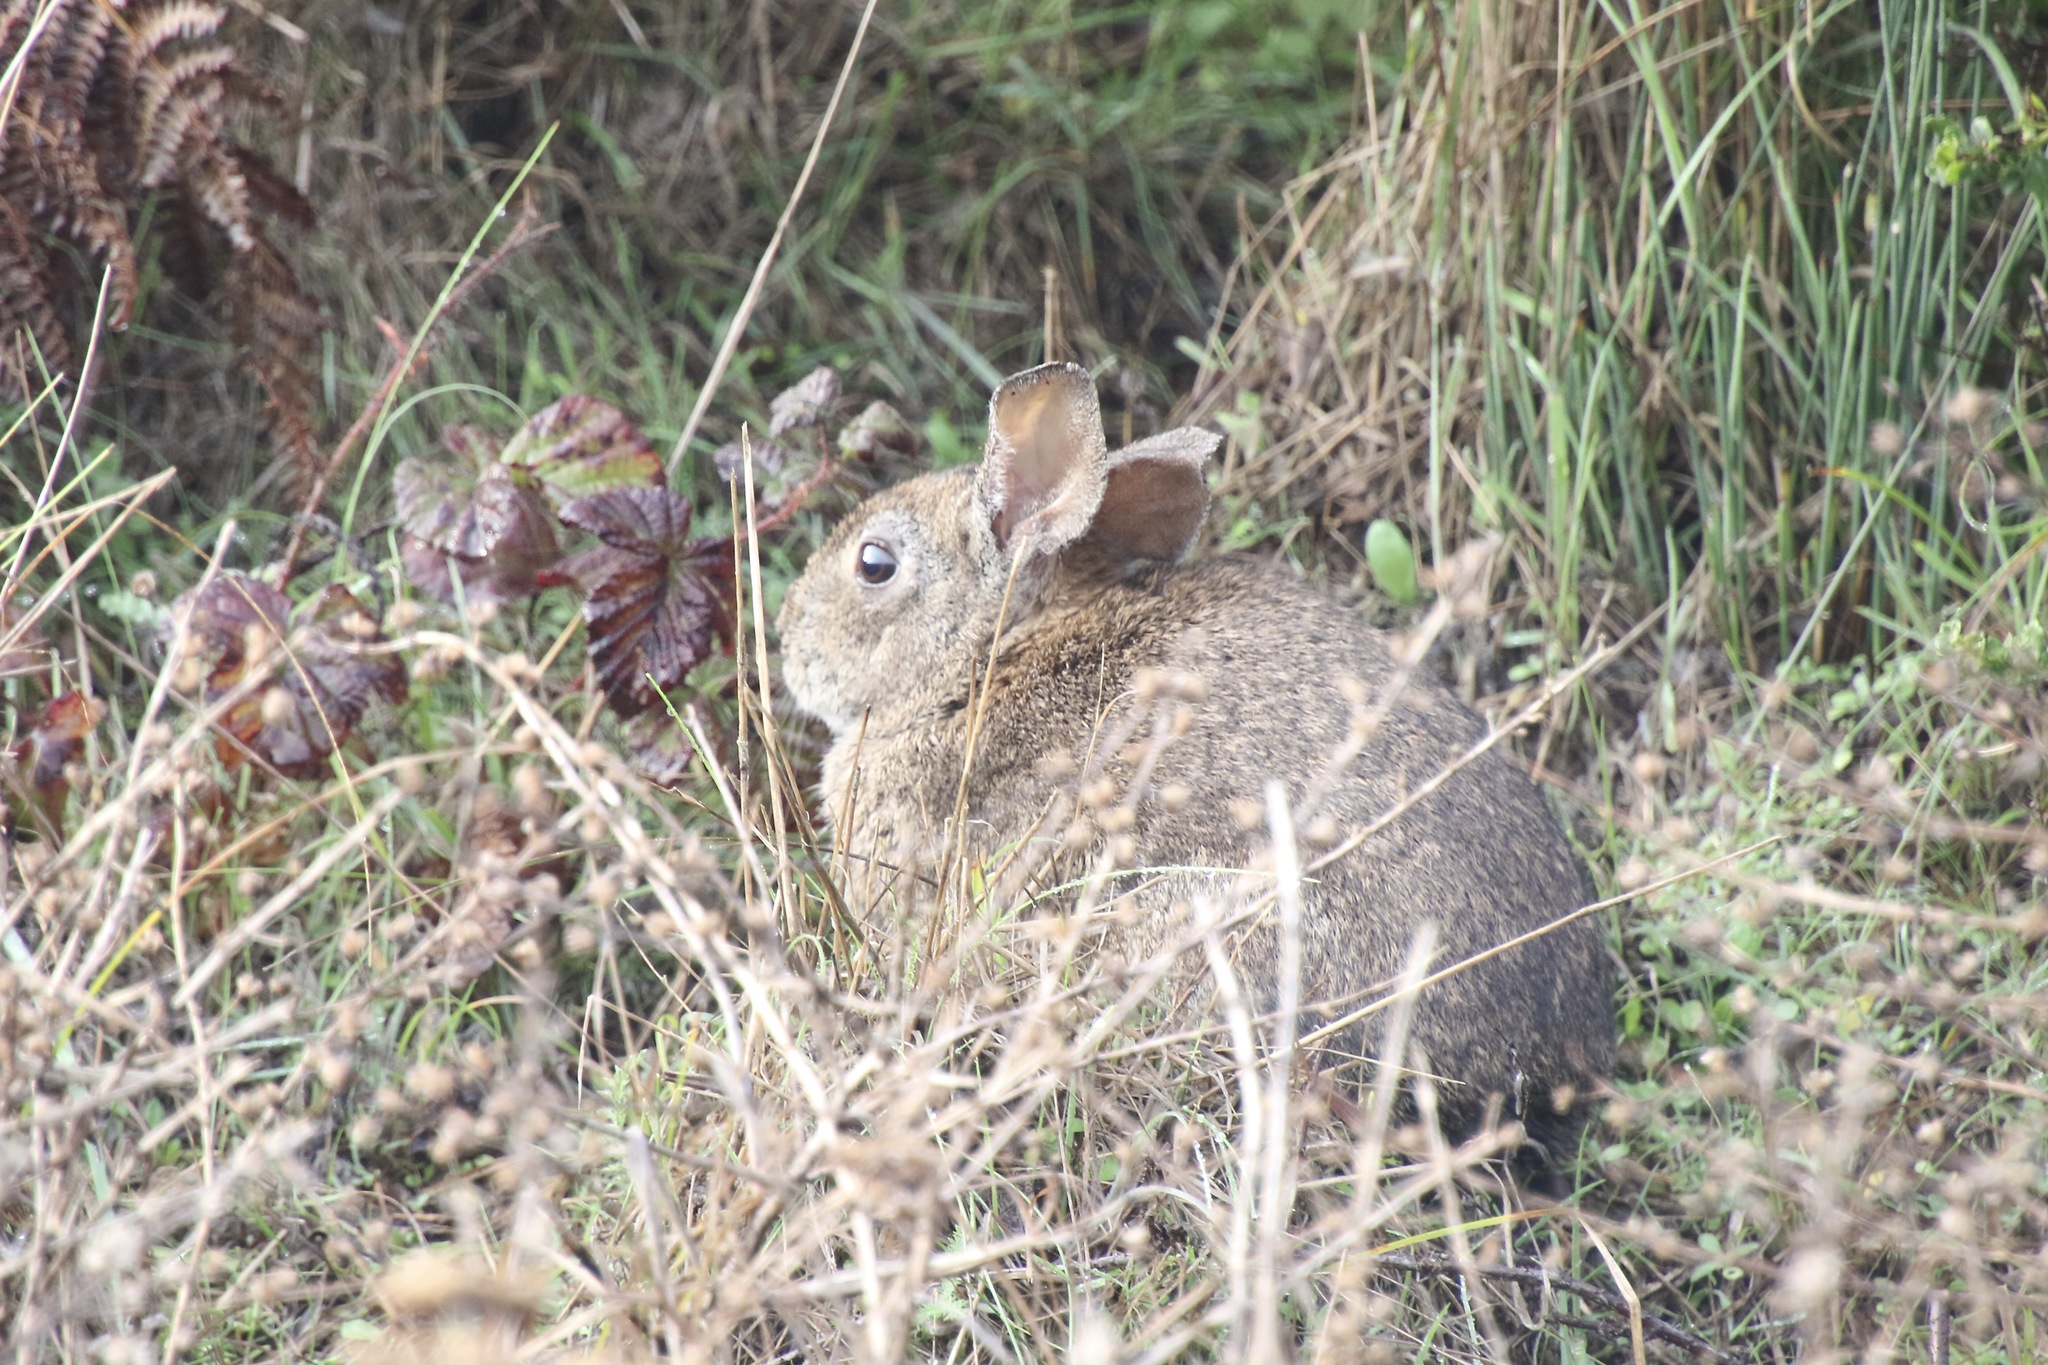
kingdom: Animalia
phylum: Chordata
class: Mammalia
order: Lagomorpha
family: Leporidae
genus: Sylvilagus
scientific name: Sylvilagus bachmani
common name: Brush rabbit
